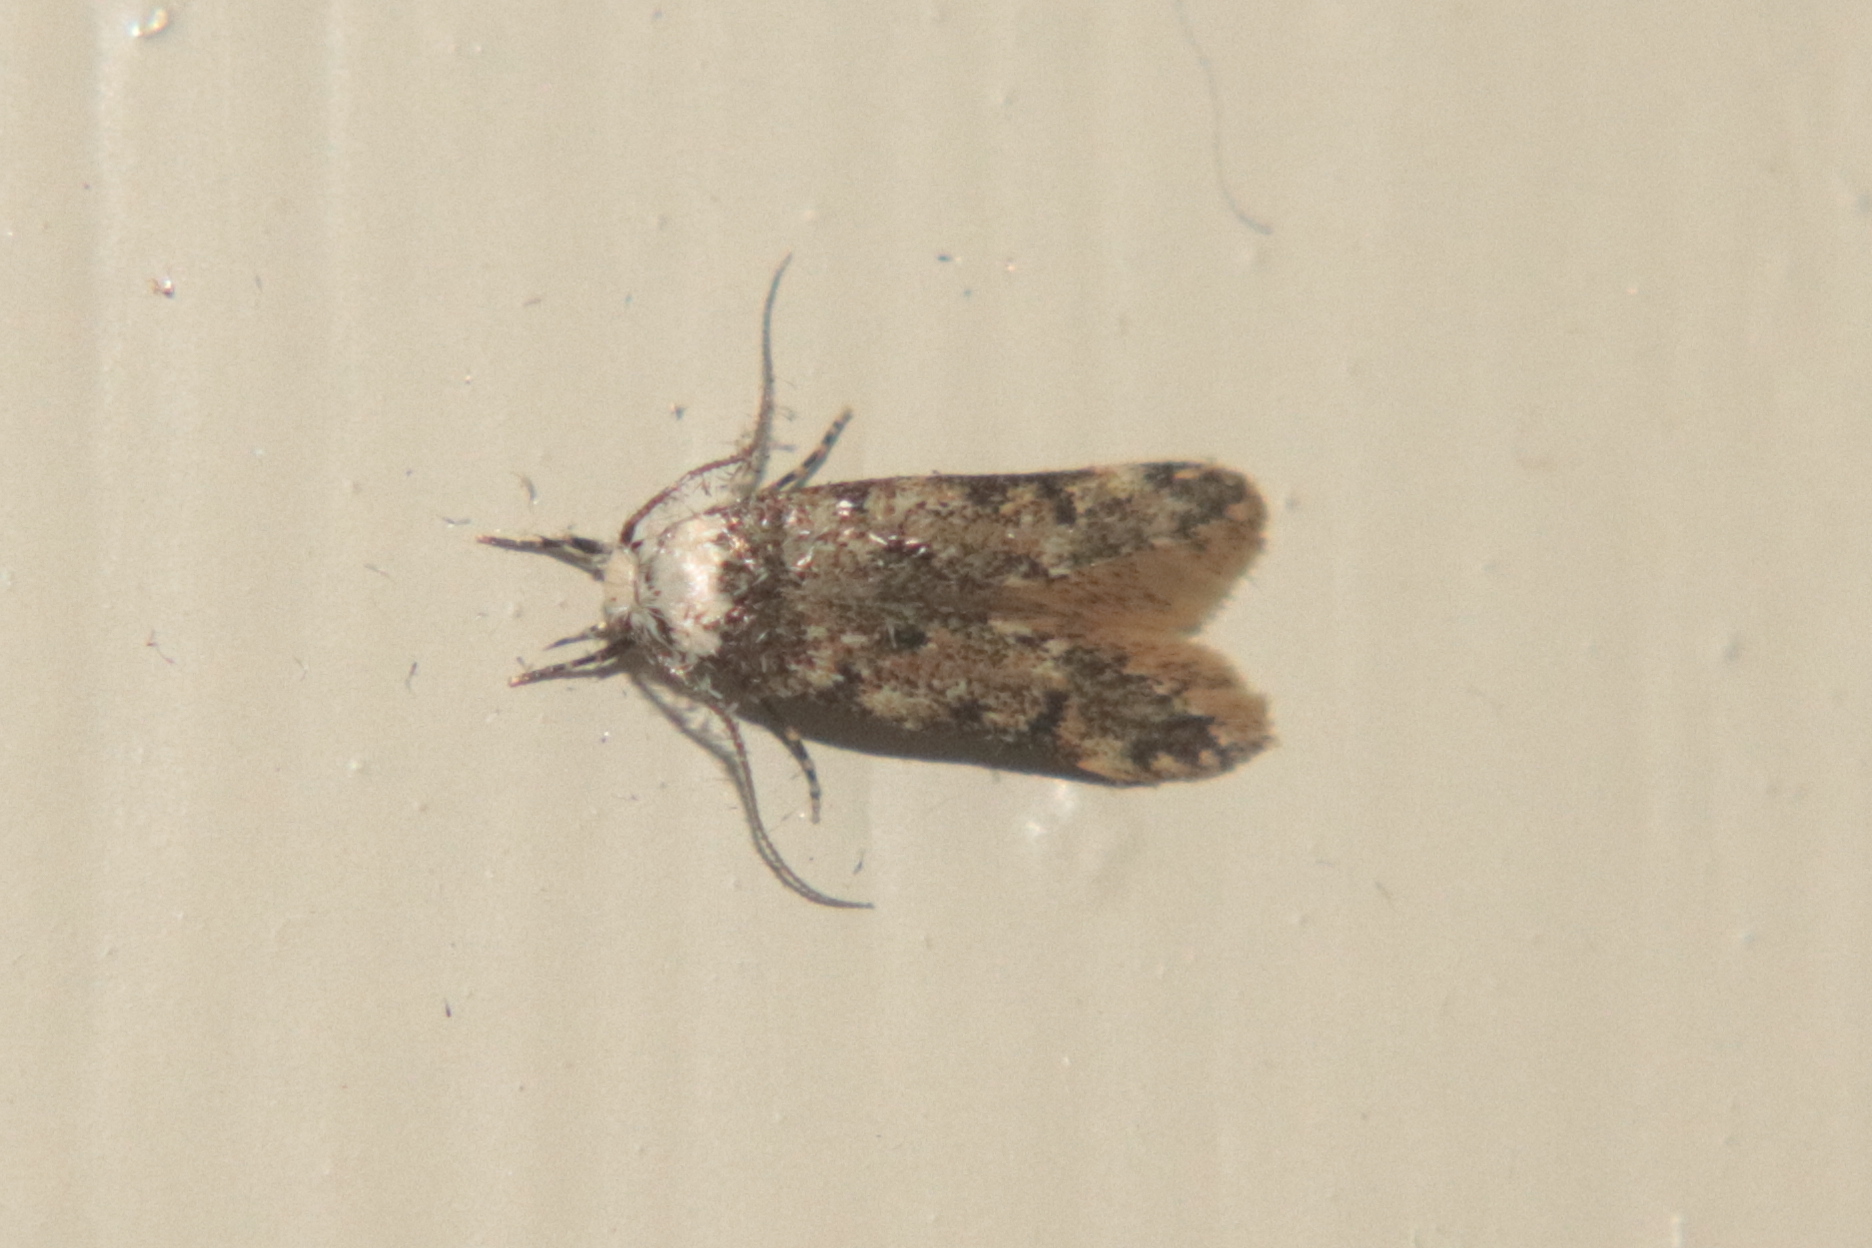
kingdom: Animalia
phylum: Arthropoda
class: Insecta
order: Lepidoptera
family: Oecophoridae
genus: Endrosis
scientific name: Endrosis sarcitrella
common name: White-shouldered house moth
